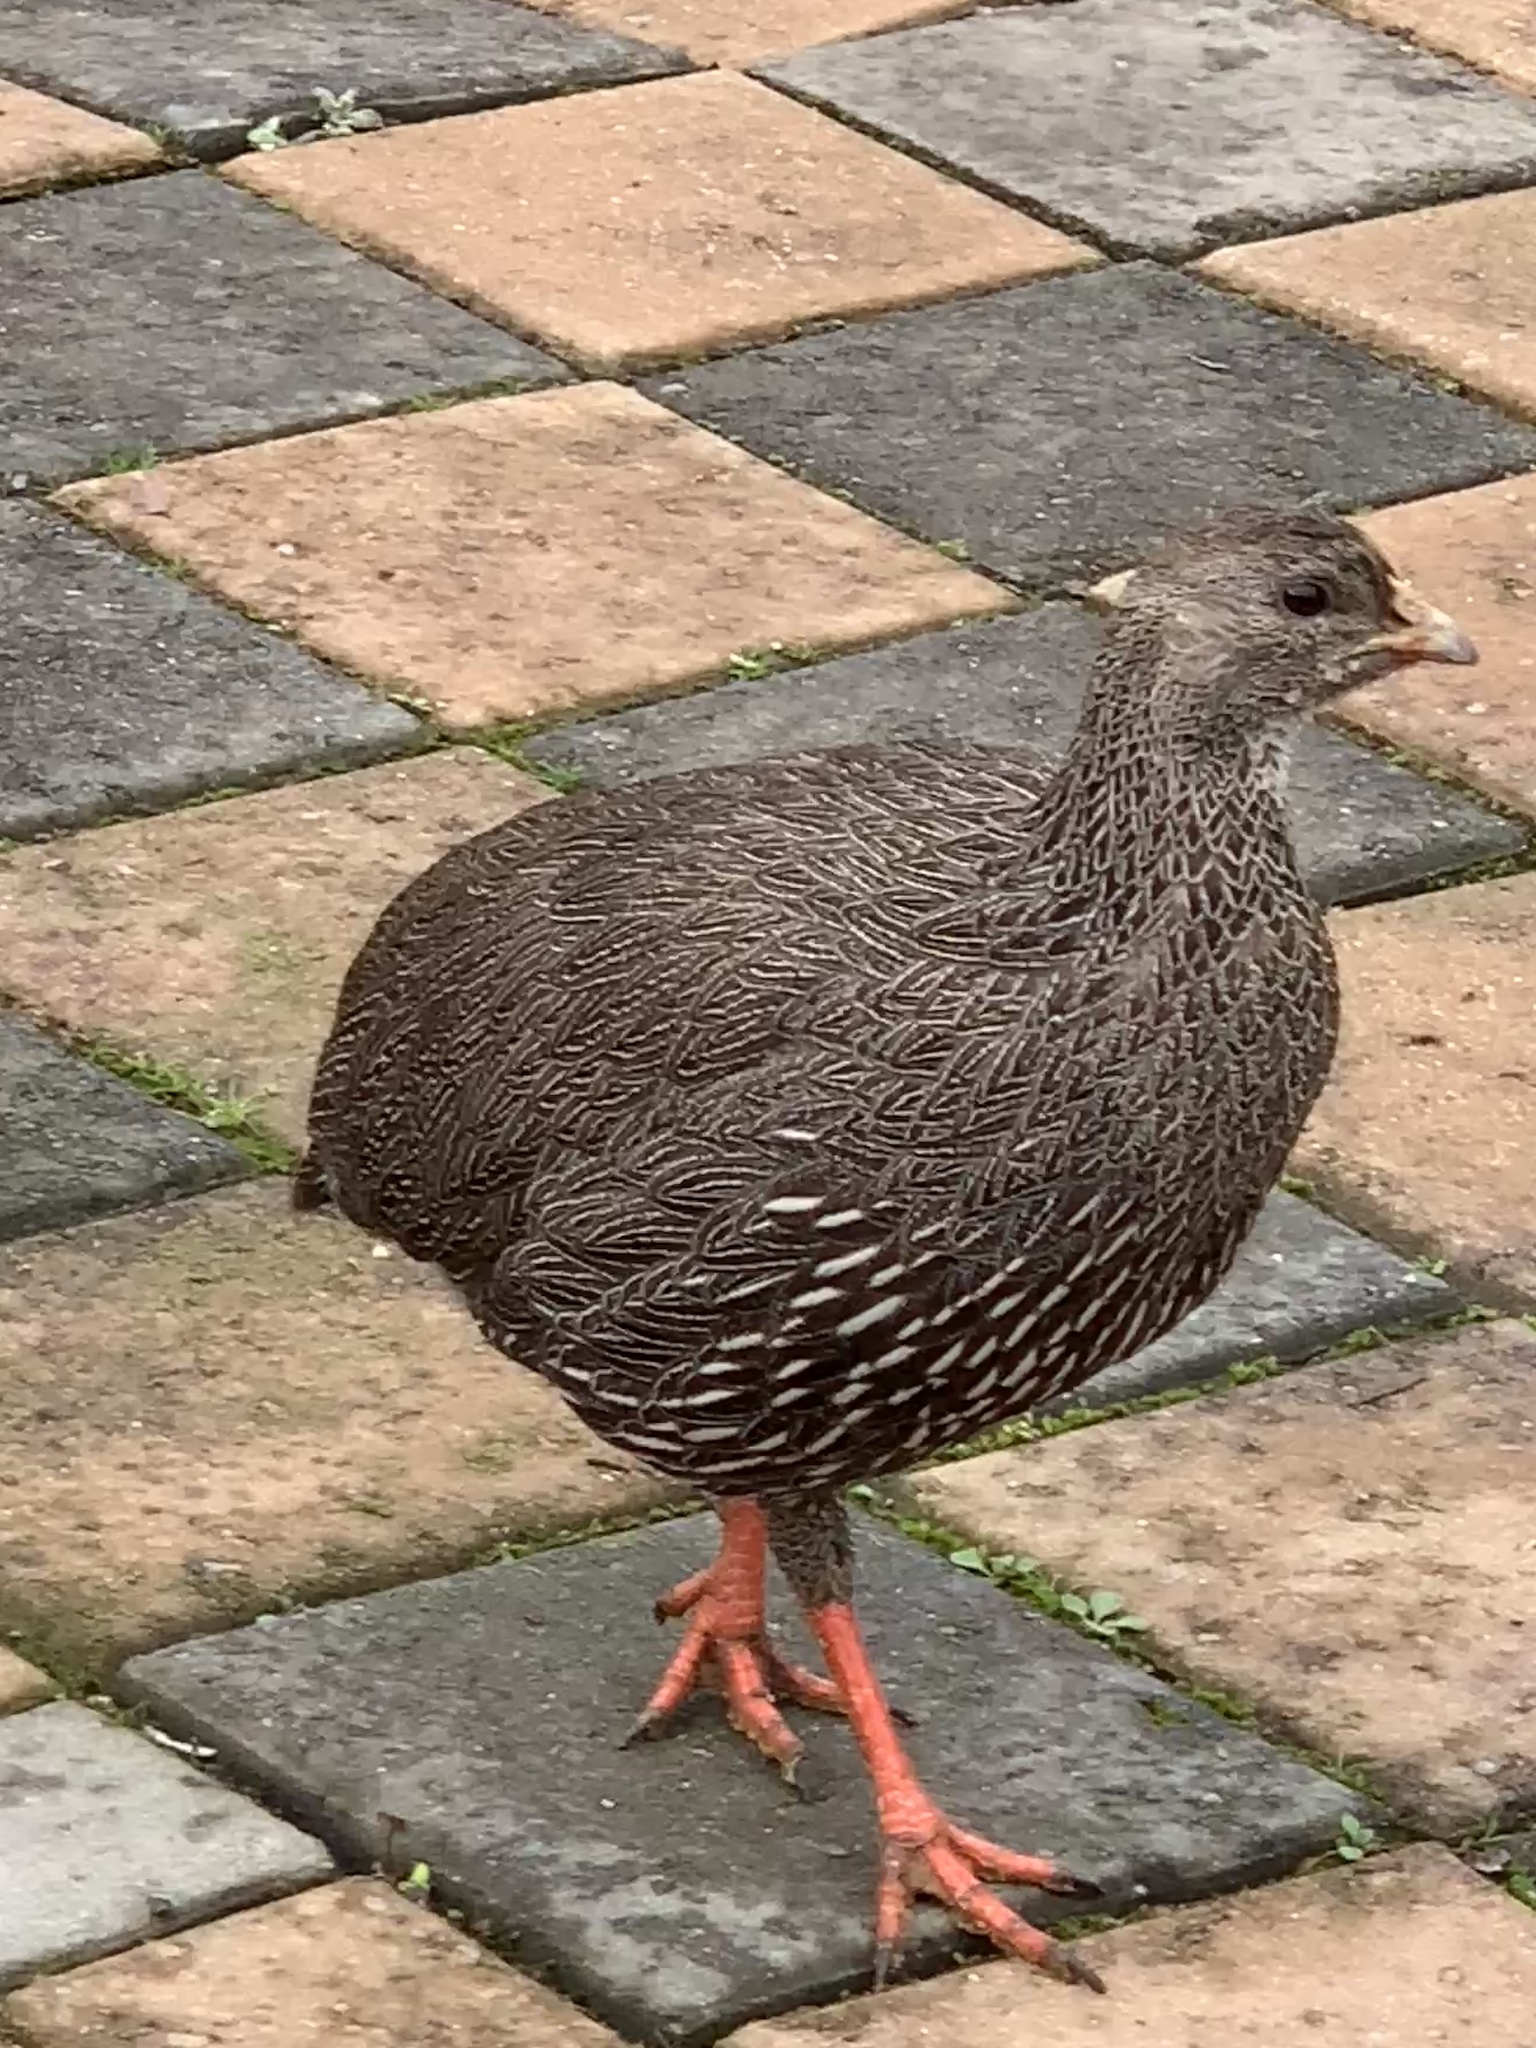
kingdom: Animalia
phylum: Chordata
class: Aves
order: Galliformes
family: Phasianidae
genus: Pternistis
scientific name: Pternistis capensis
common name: Cape spurfowl
